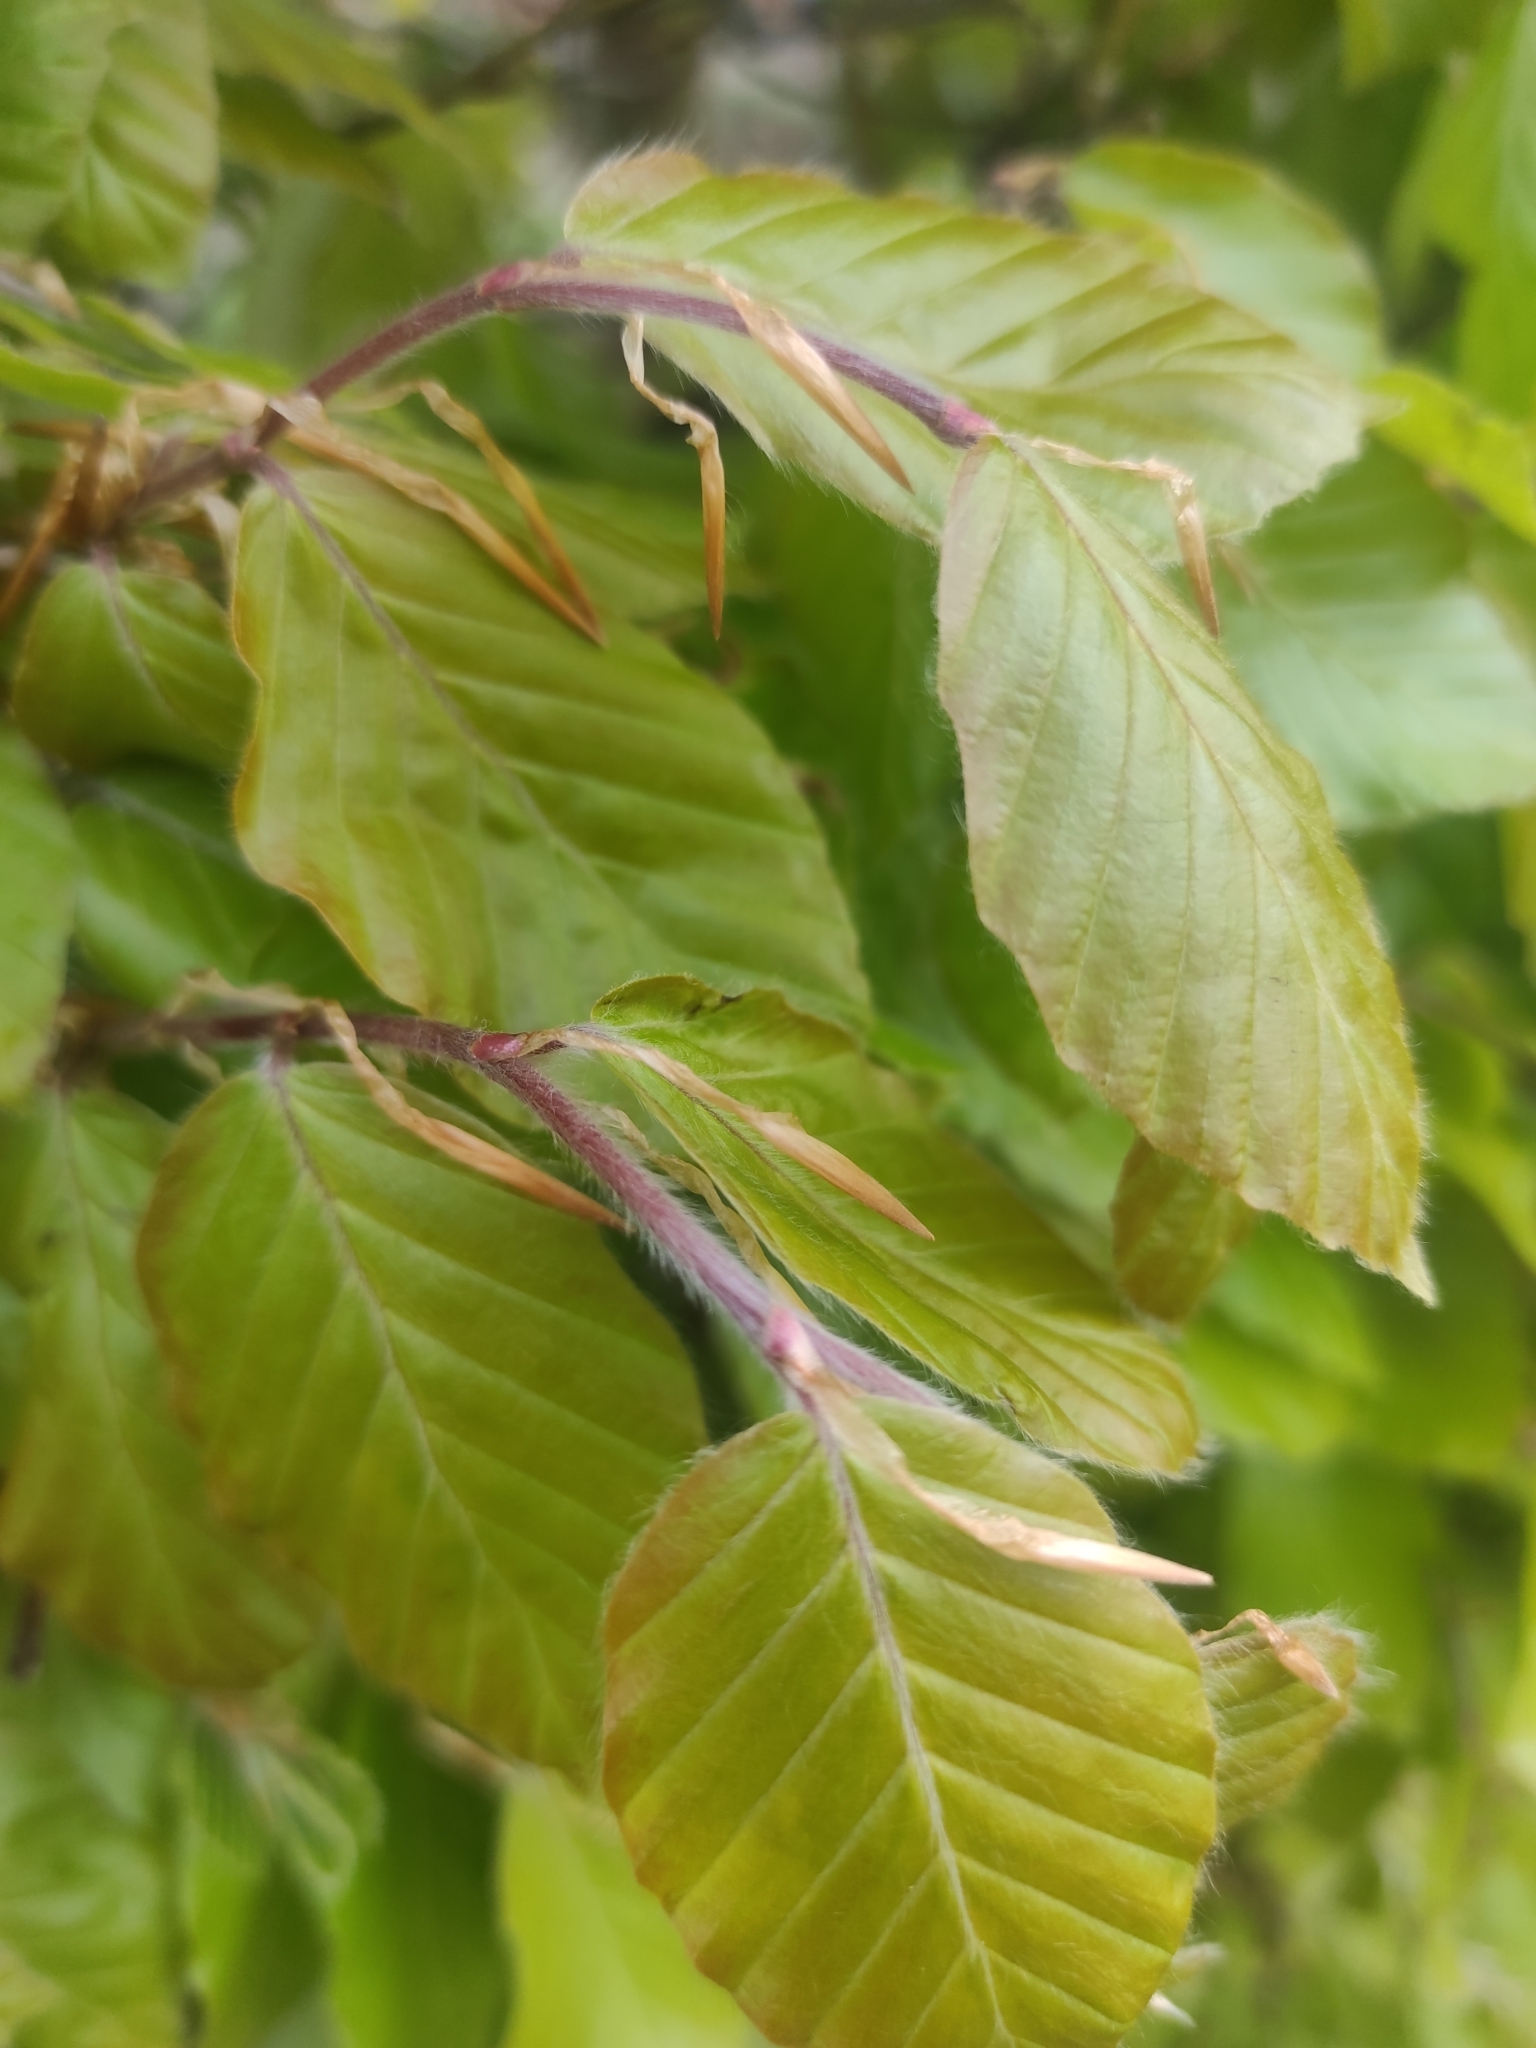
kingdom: Plantae
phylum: Tracheophyta
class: Magnoliopsida
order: Fagales
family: Fagaceae
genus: Fagus
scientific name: Fagus sylvatica
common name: Beech
